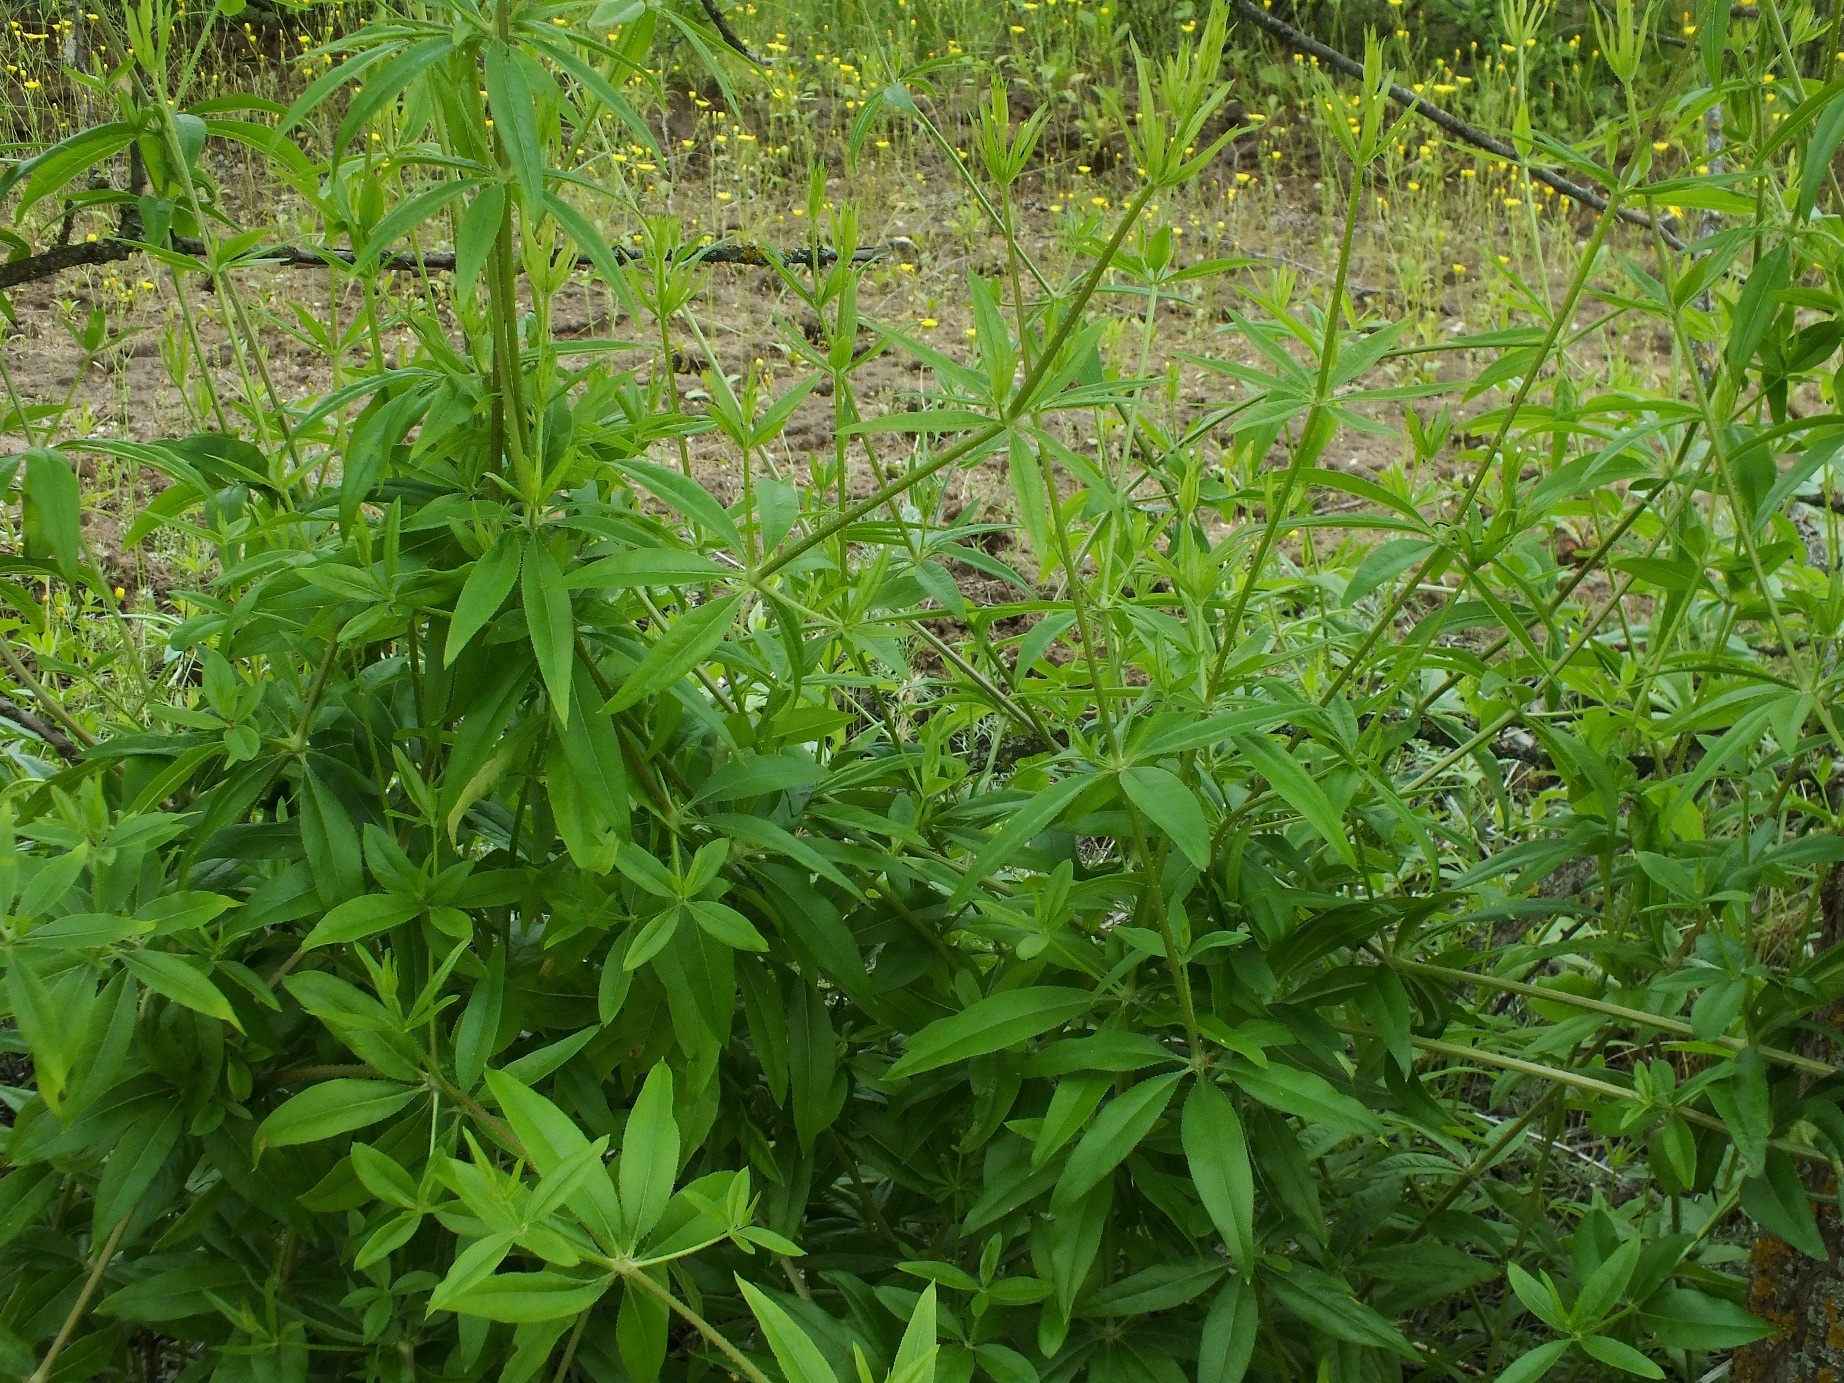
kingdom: Plantae
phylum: Tracheophyta
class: Magnoliopsida
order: Gentianales
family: Rubiaceae
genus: Rubia
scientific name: Rubia tinctorum
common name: Dyer's madder
